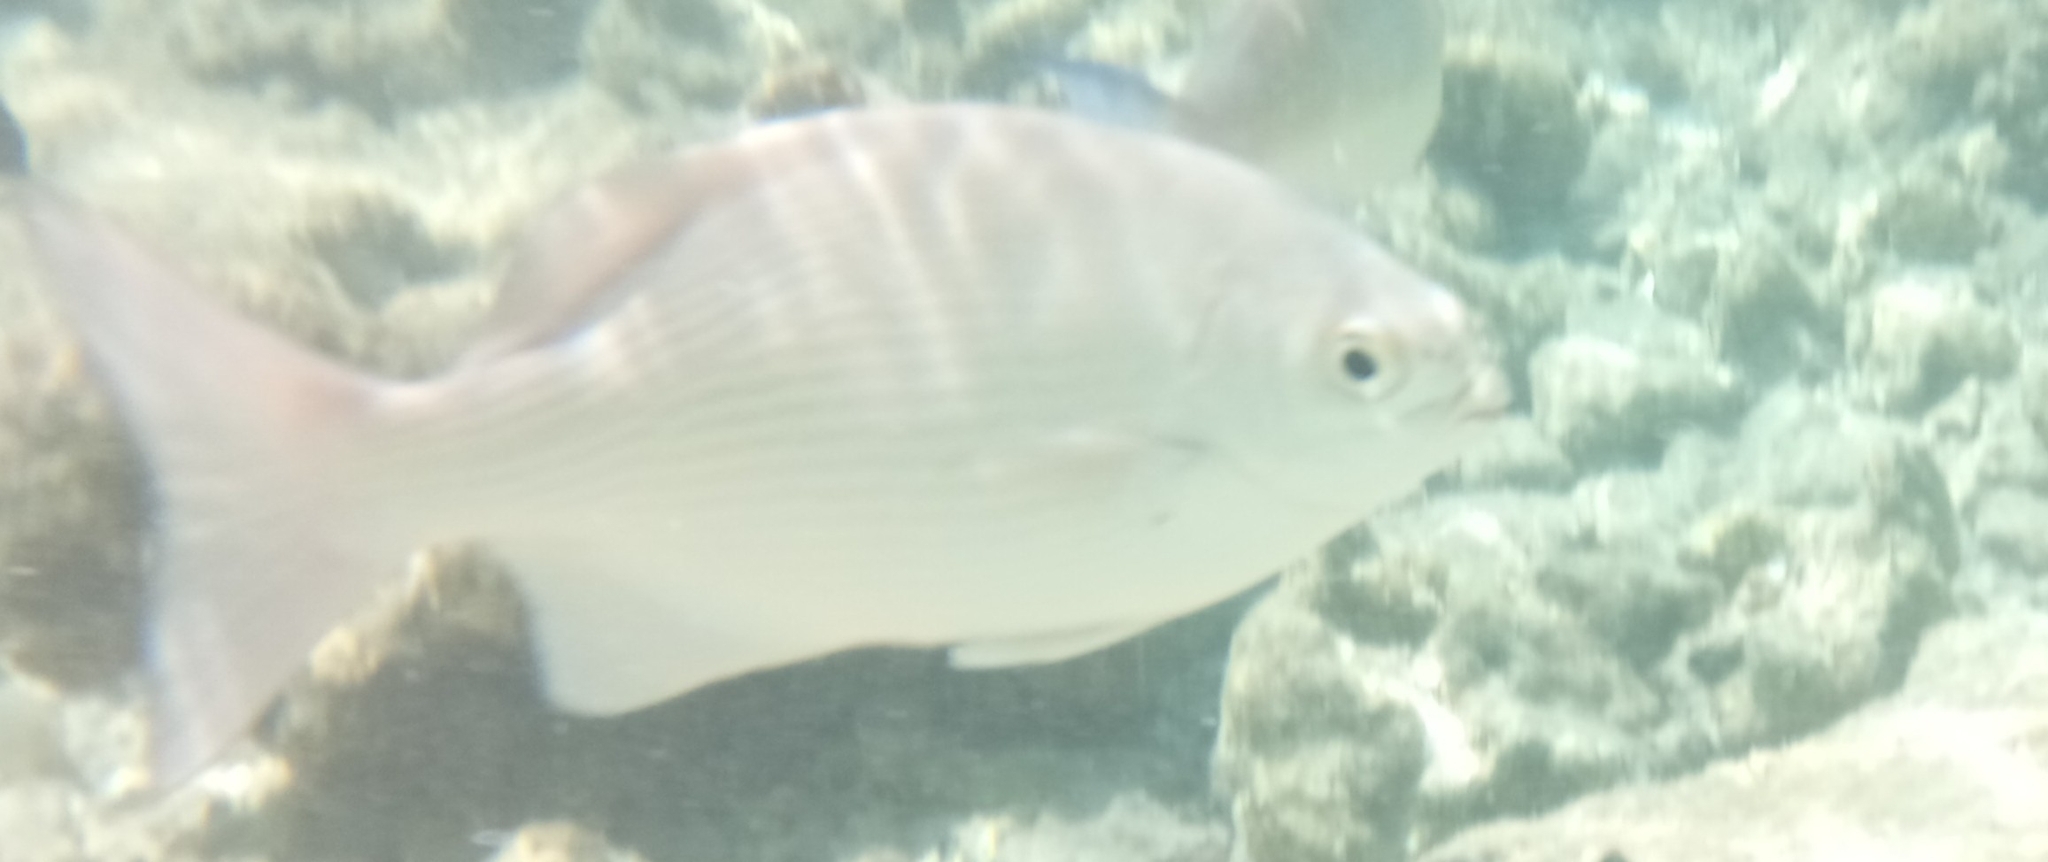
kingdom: Animalia
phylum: Chordata
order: Perciformes
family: Kyphosidae
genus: Kyphosus
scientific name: Kyphosus cinerascens
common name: Topsail drummer
